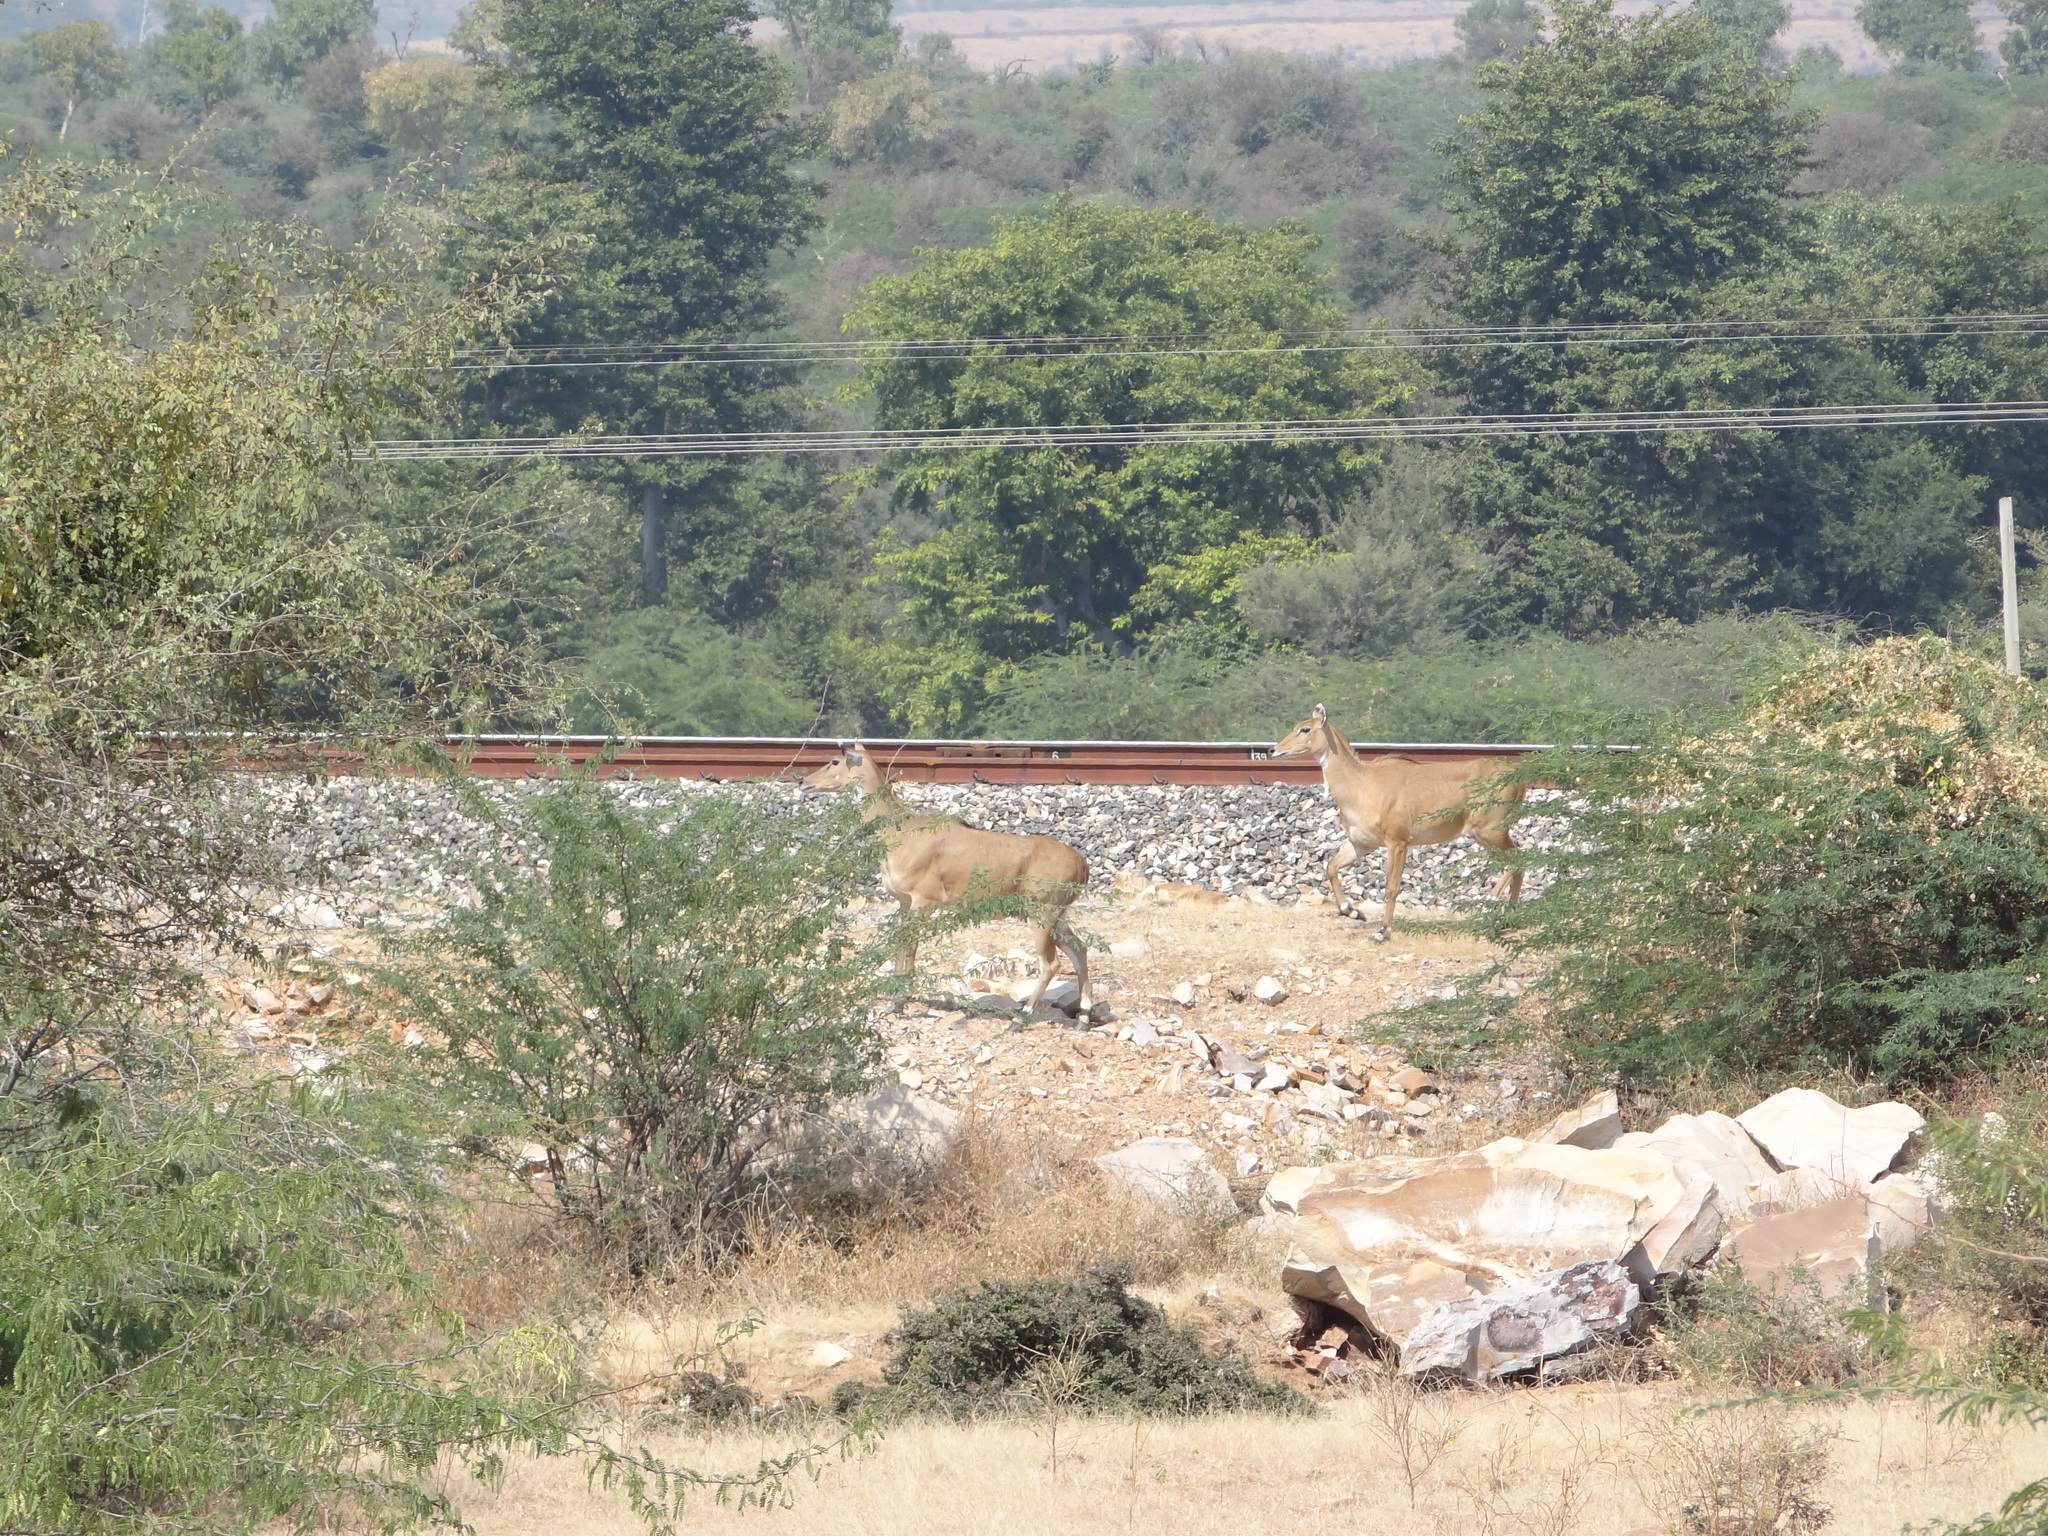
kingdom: Animalia
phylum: Chordata
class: Mammalia
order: Artiodactyla
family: Bovidae
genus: Boselaphus
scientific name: Boselaphus tragocamelus
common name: Nilgai
